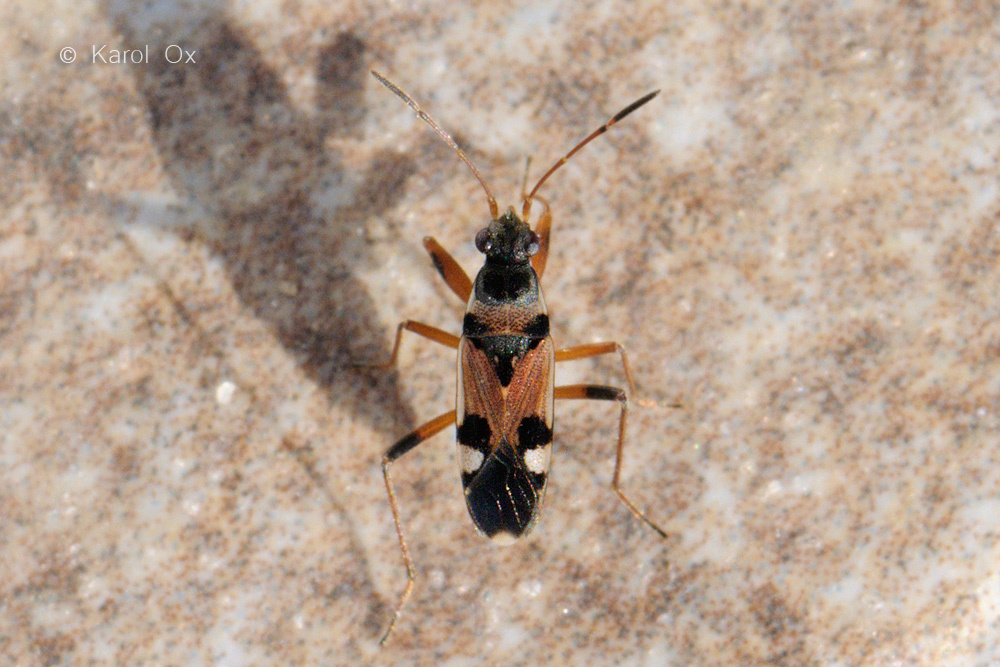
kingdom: Animalia
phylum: Arthropoda
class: Insecta
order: Hemiptera
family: Rhyparochromidae
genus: Beosus
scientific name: Beosus quadripunctatus
